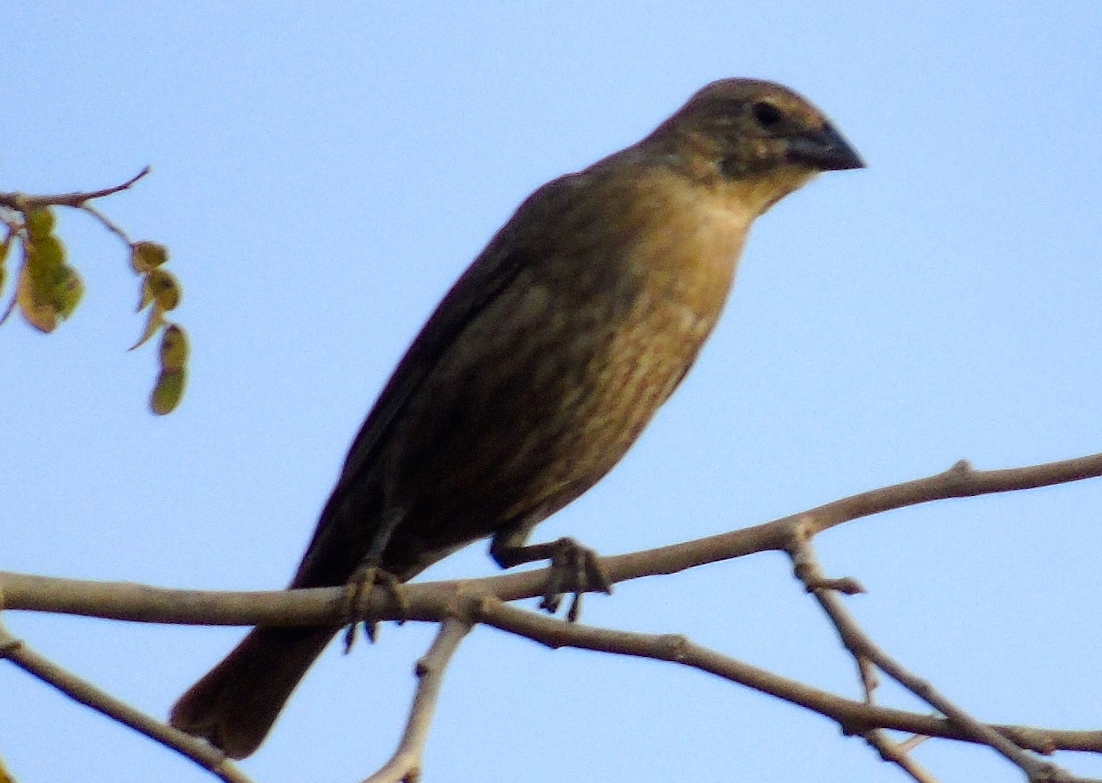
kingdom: Animalia
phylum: Chordata
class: Aves
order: Passeriformes
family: Icteridae
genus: Molothrus
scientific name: Molothrus ater
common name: Brown-headed cowbird
